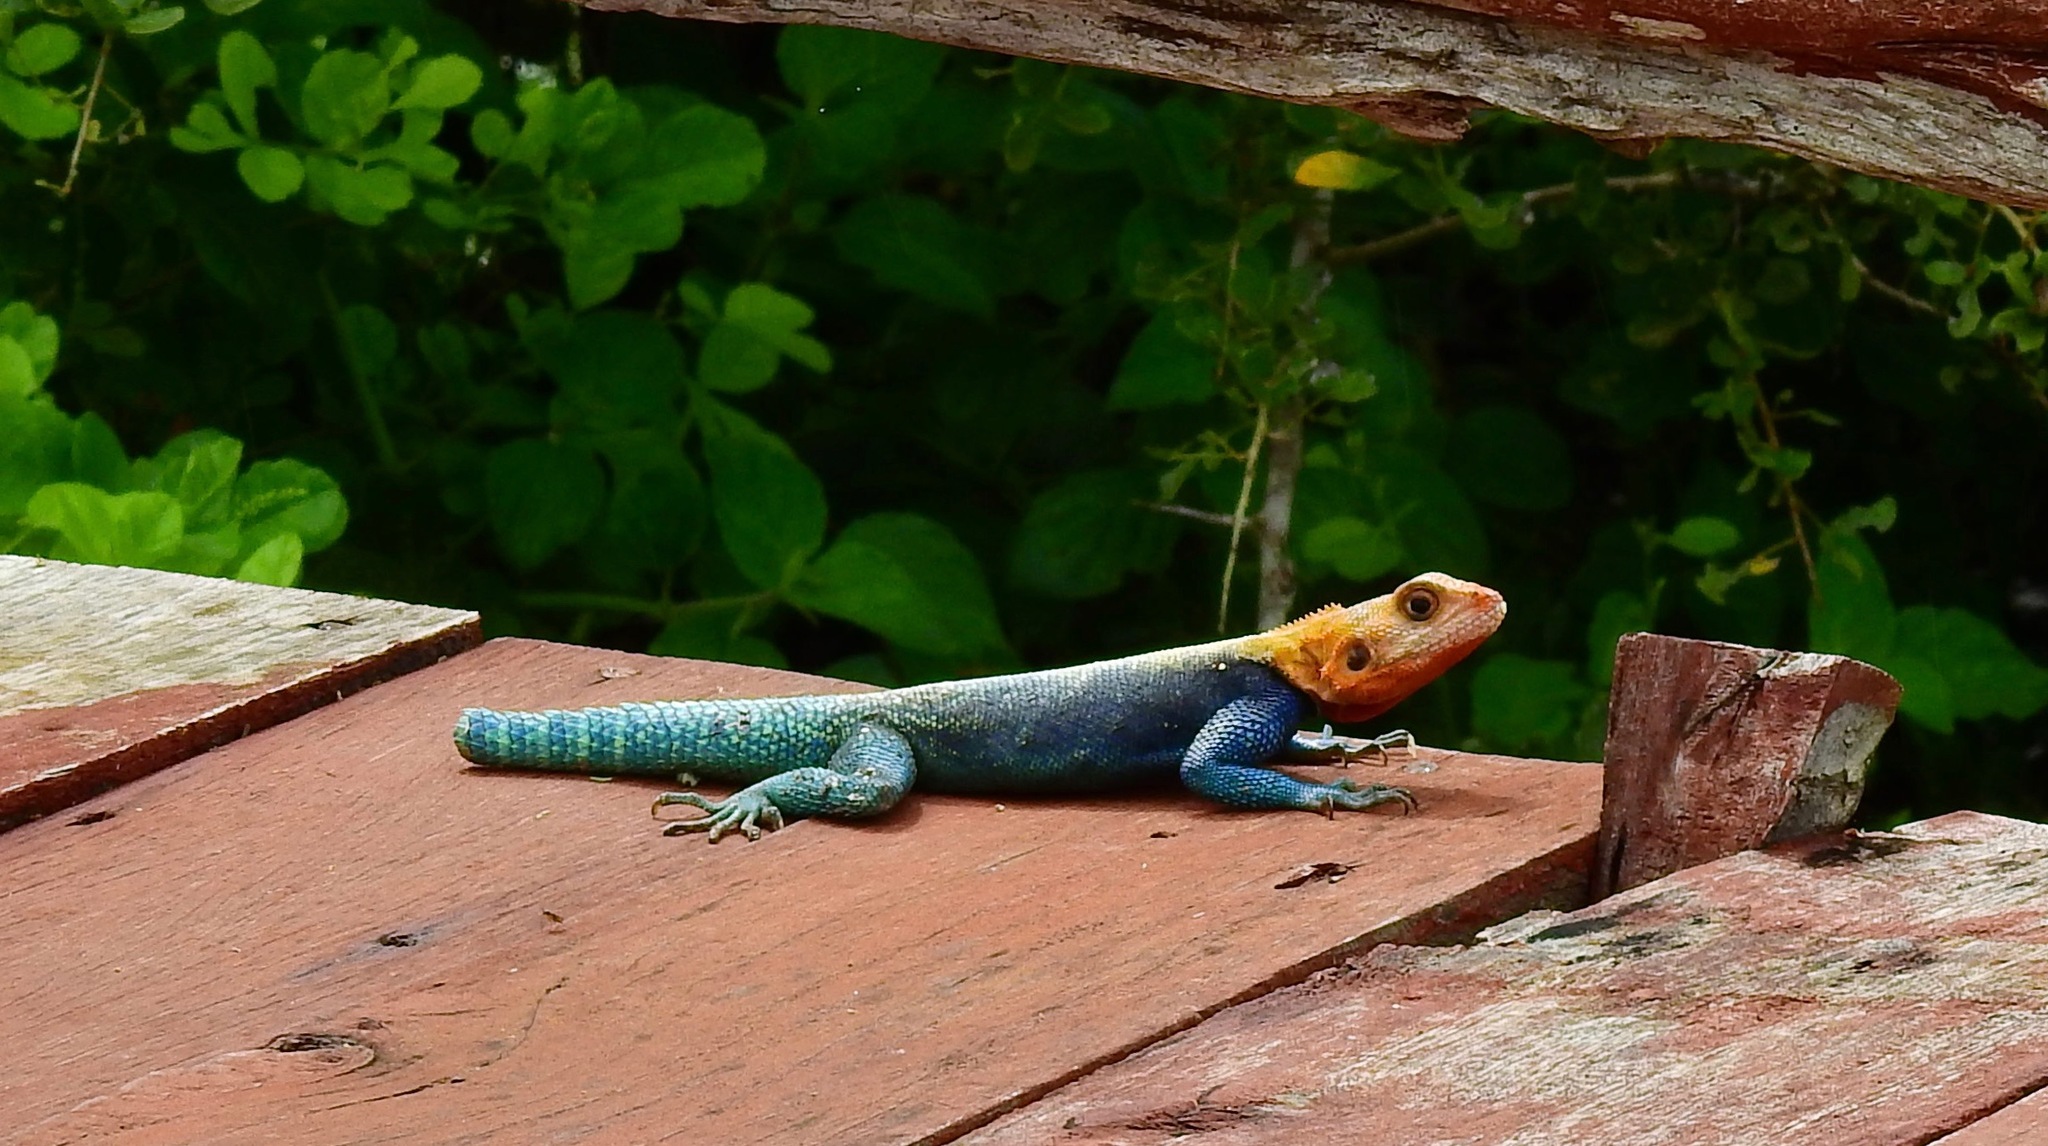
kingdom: Animalia
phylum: Chordata
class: Squamata
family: Agamidae
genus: Agama
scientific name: Agama lionotus
